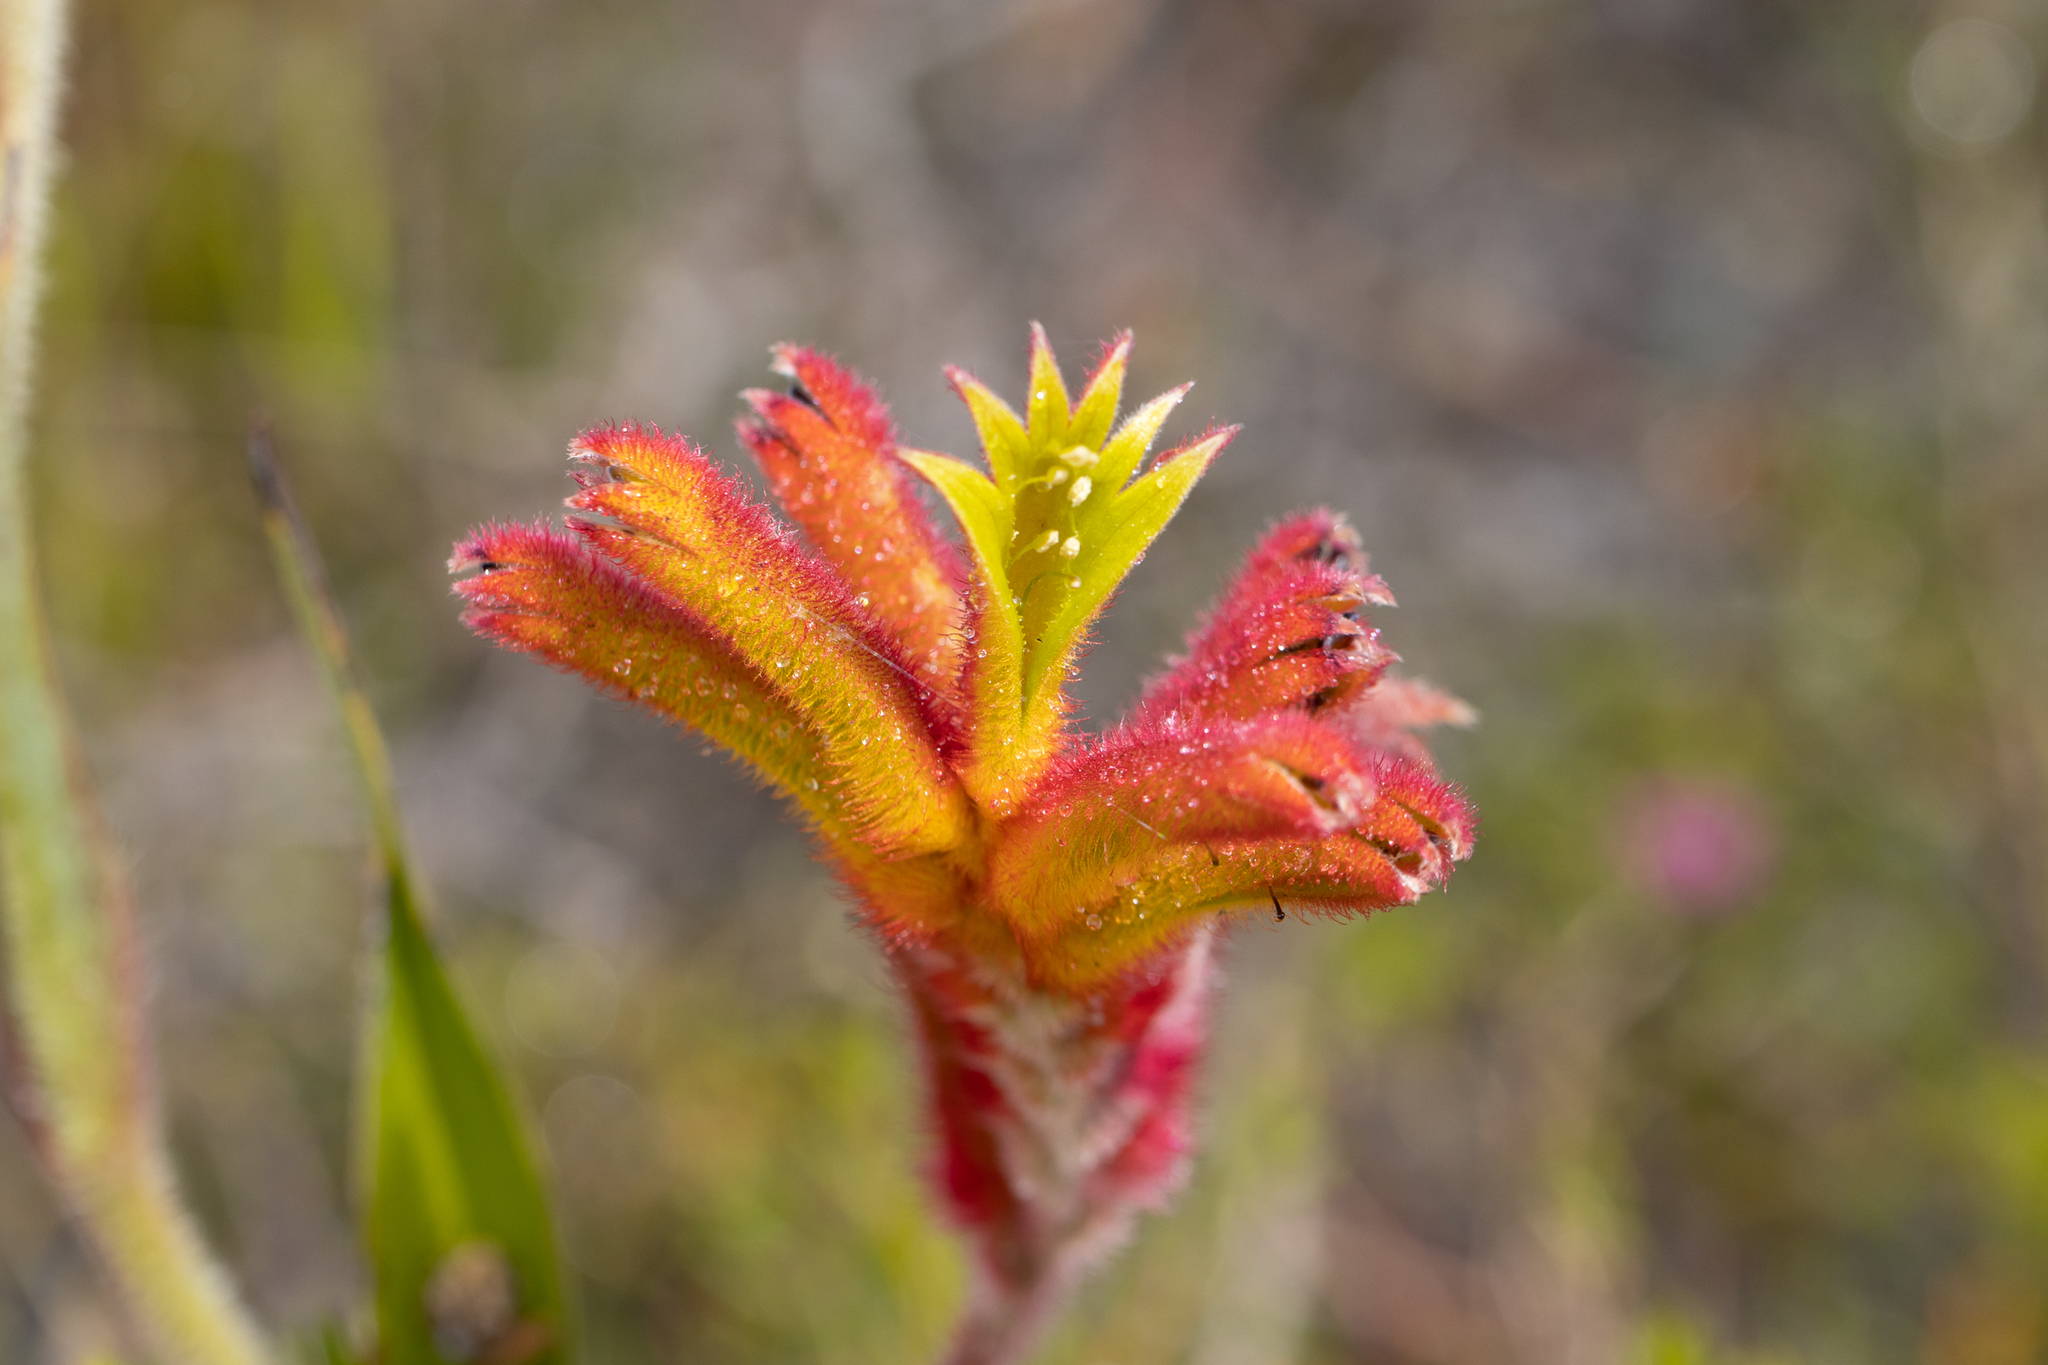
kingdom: Plantae
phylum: Tracheophyta
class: Liliopsida
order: Commelinales
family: Haemodoraceae
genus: Anigozanthos
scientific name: Anigozanthos humilis
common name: Cat's-paw
